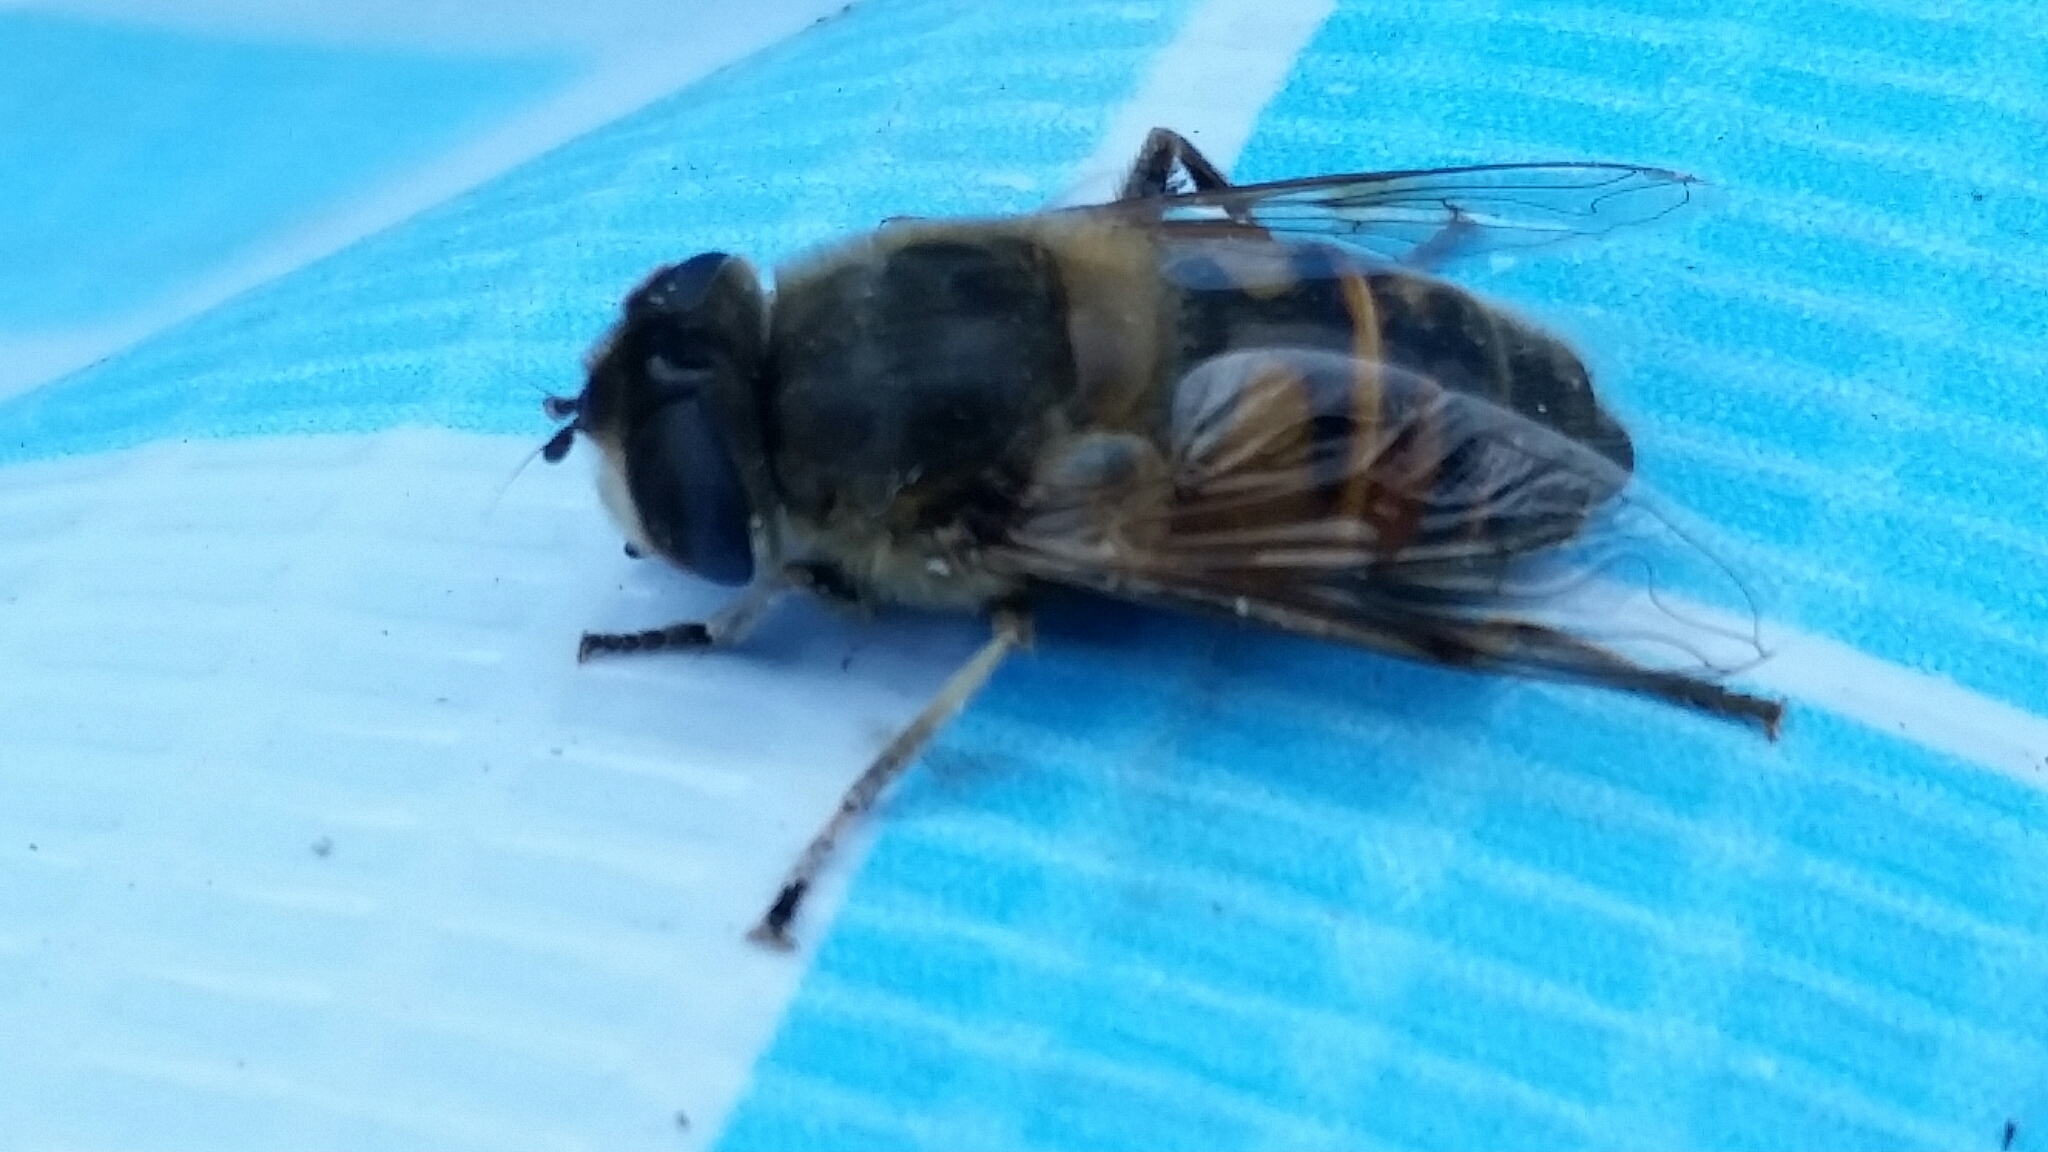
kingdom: Animalia
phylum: Arthropoda
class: Insecta
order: Diptera
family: Syrphidae
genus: Eristalis
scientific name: Eristalis tenax
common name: Drone fly
